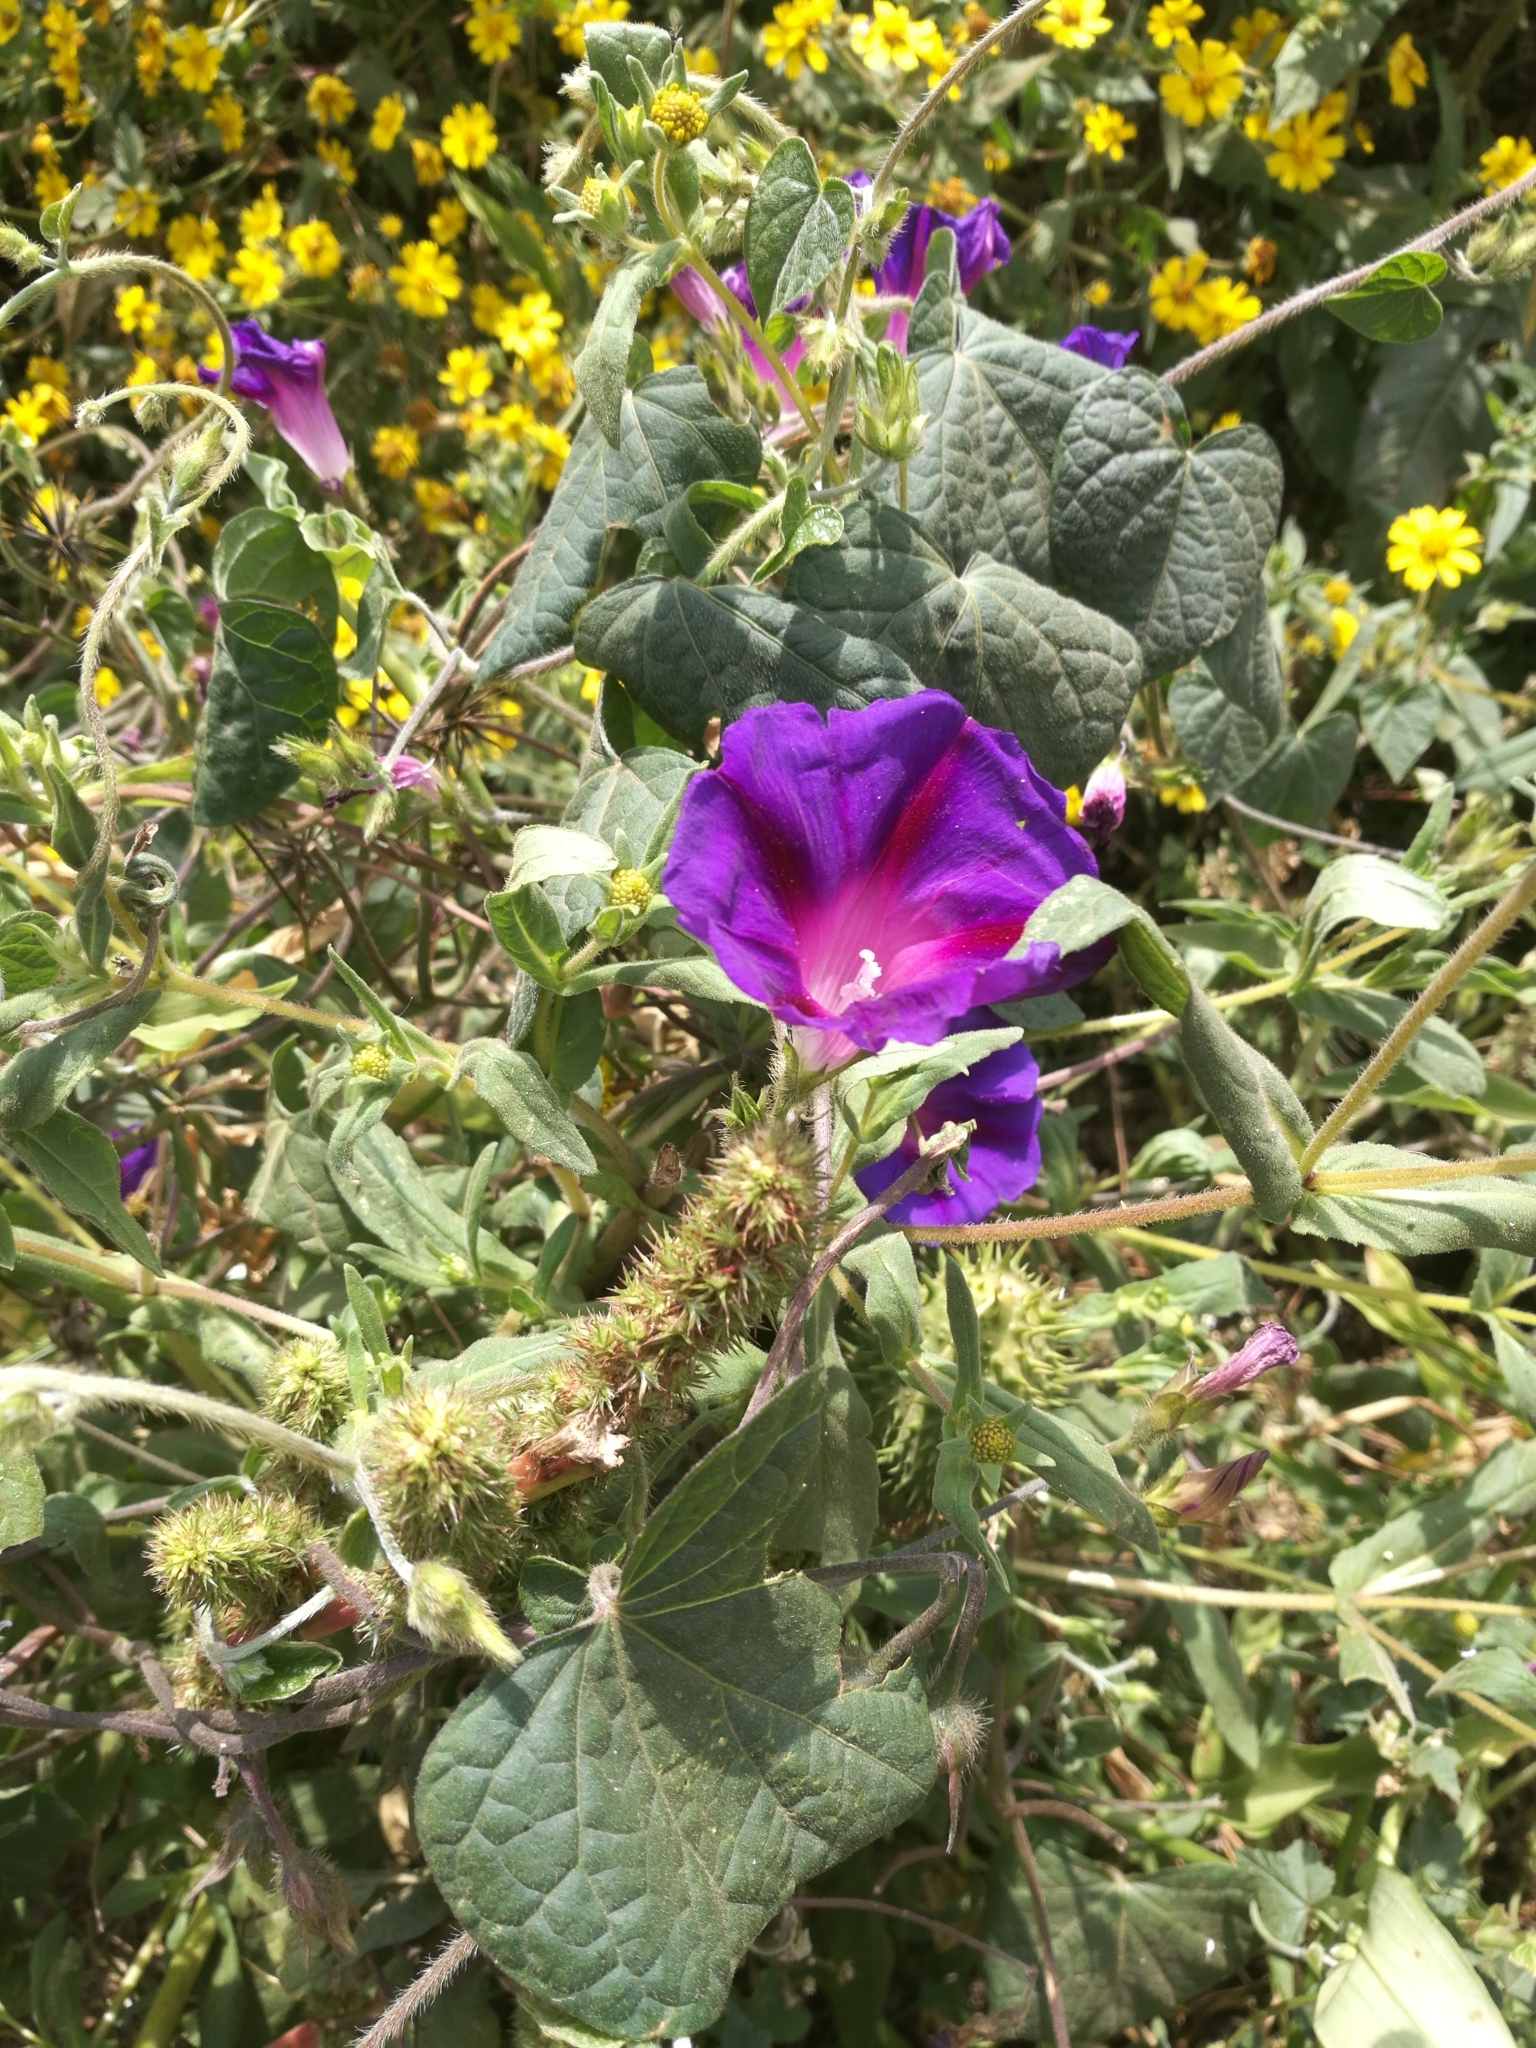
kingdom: Plantae
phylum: Tracheophyta
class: Magnoliopsida
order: Solanales
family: Convolvulaceae
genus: Ipomoea
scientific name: Ipomoea purpurea
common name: Common morning-glory
